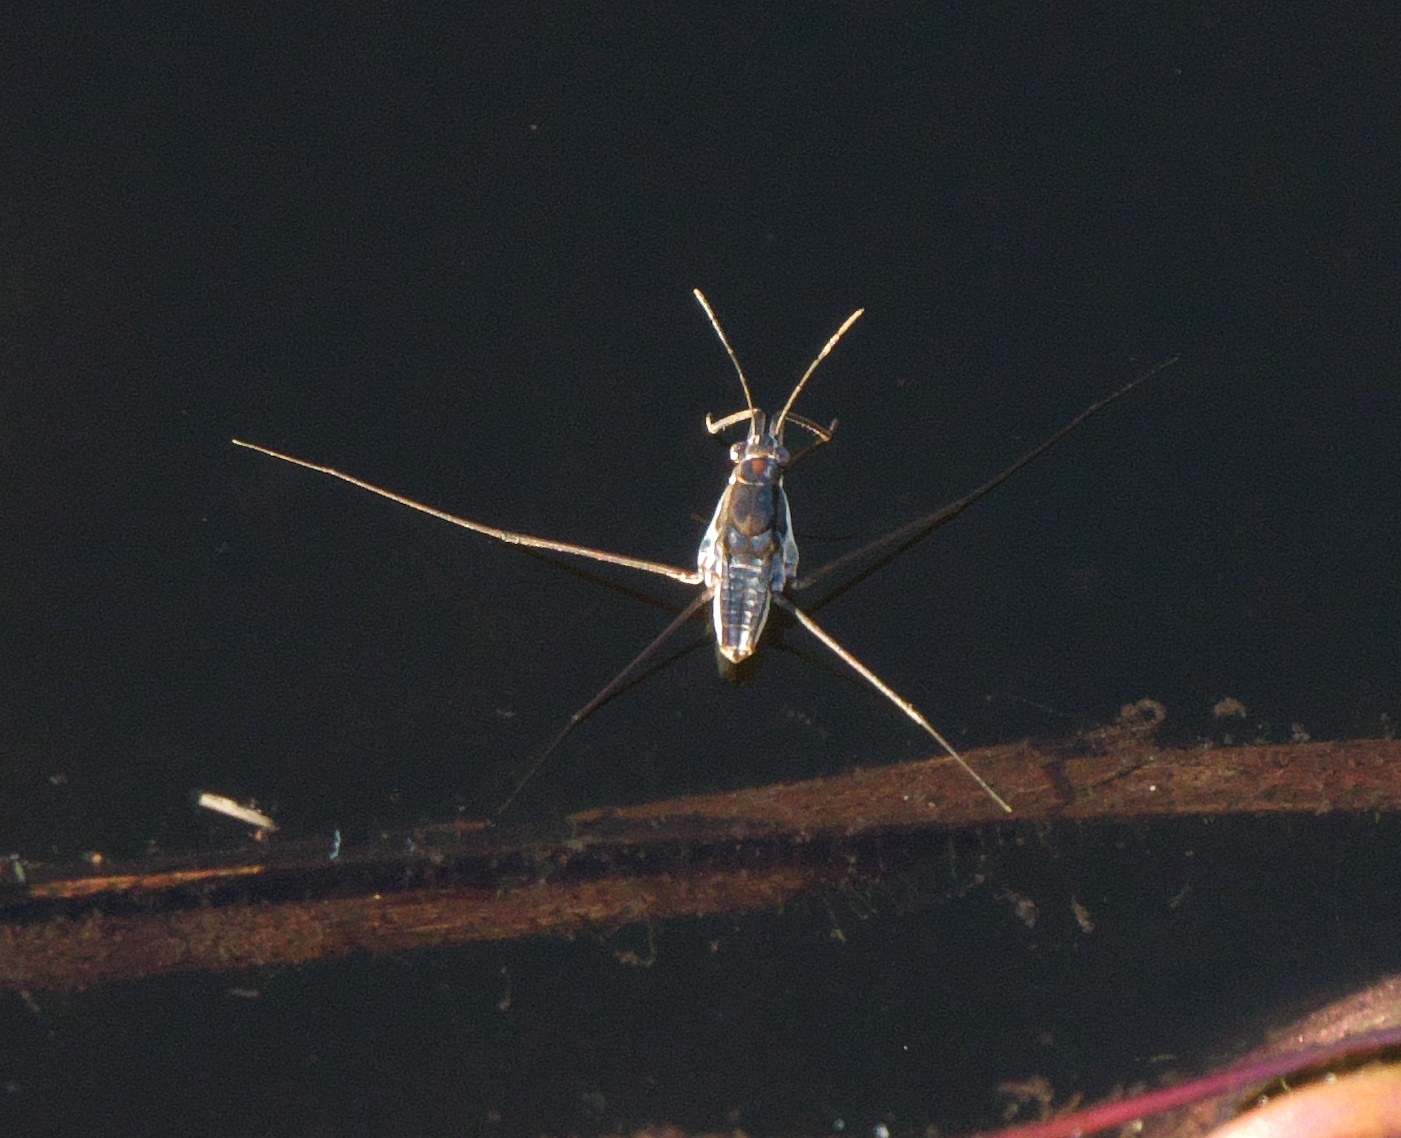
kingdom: Animalia
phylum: Arthropoda
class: Insecta
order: Hemiptera
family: Gerridae
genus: Neogerris
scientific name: Neogerris hesione
